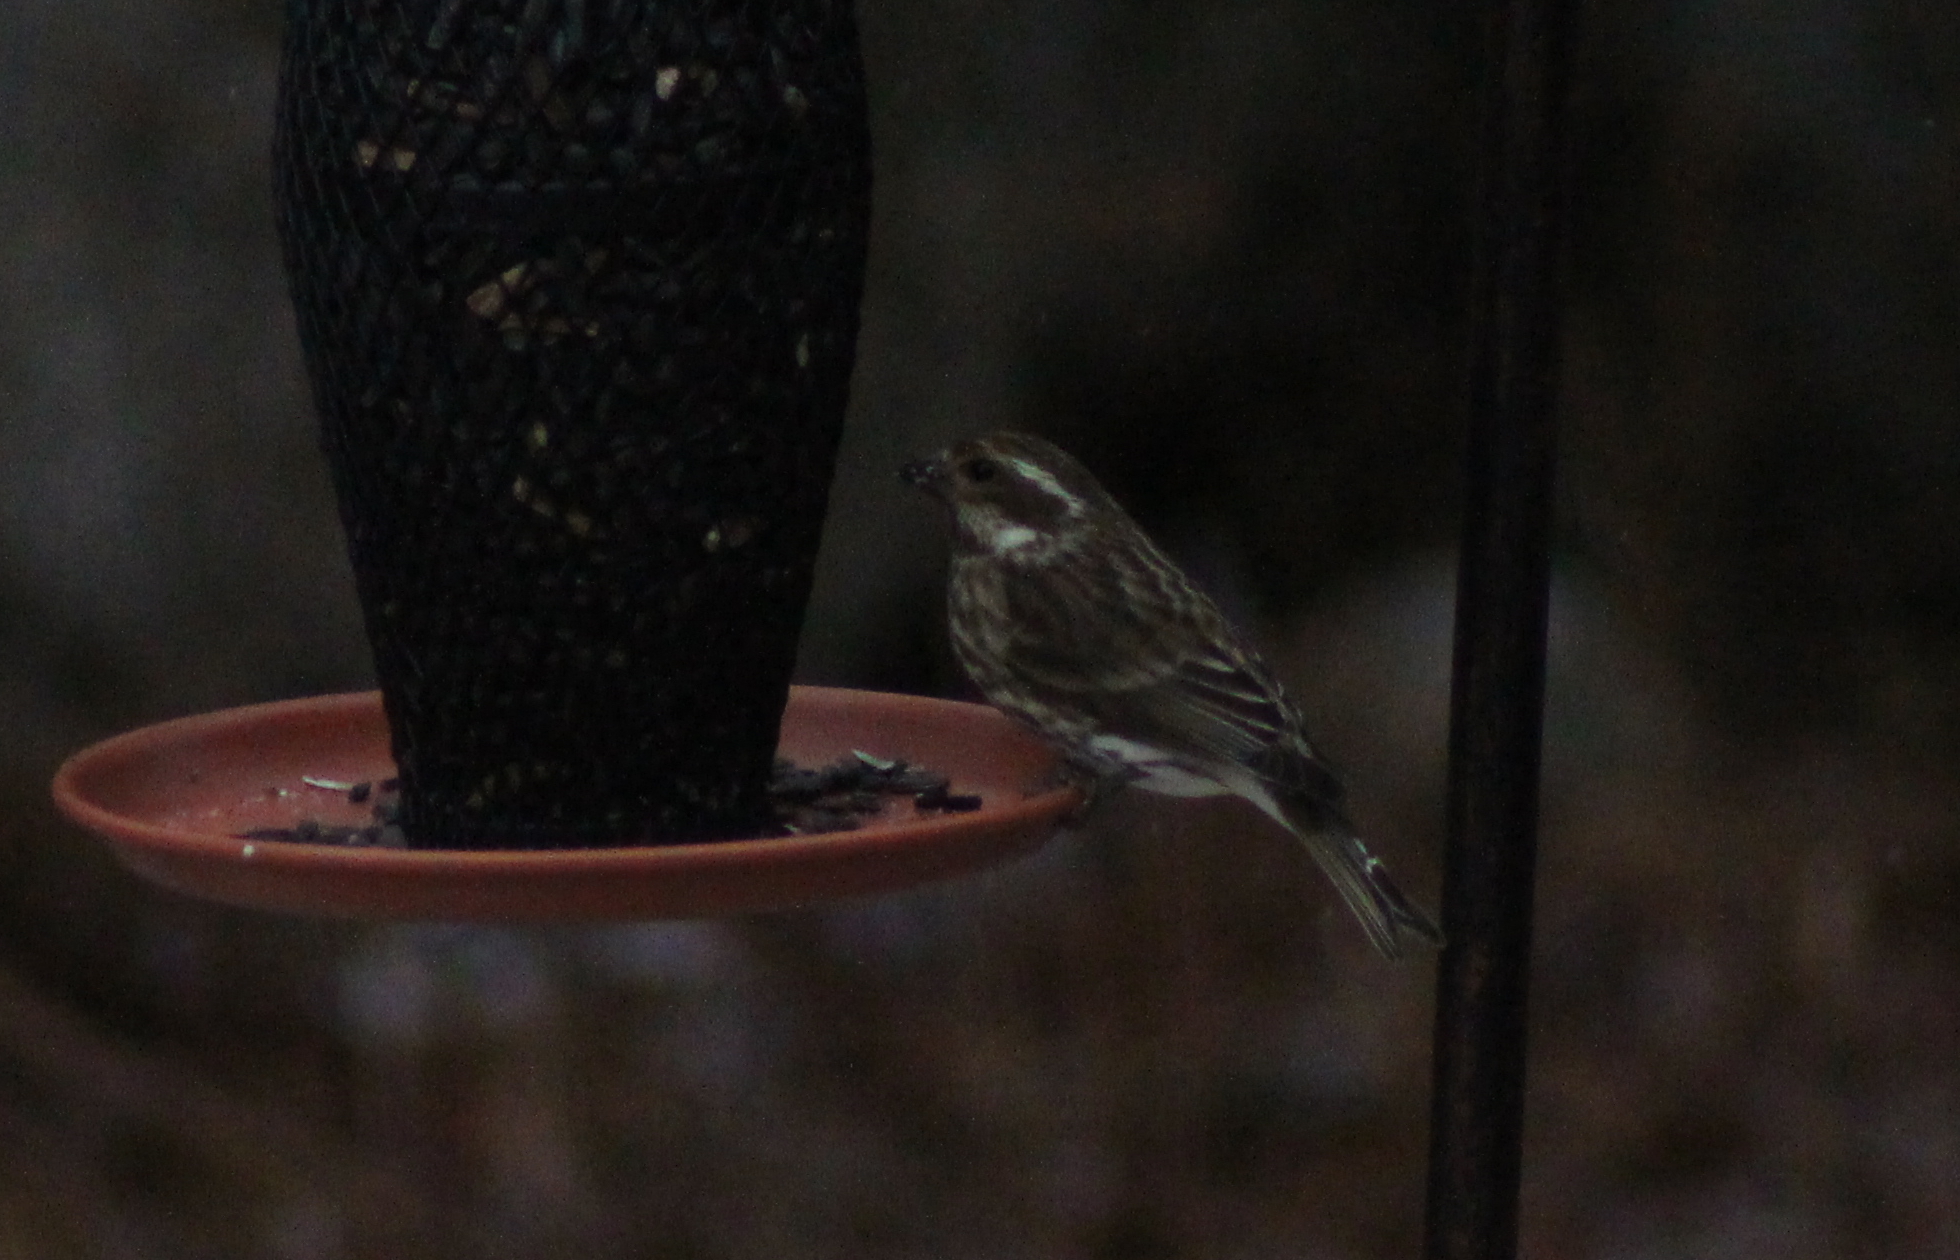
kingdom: Animalia
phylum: Chordata
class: Aves
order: Passeriformes
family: Fringillidae
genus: Haemorhous
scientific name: Haemorhous purpureus
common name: Purple finch
